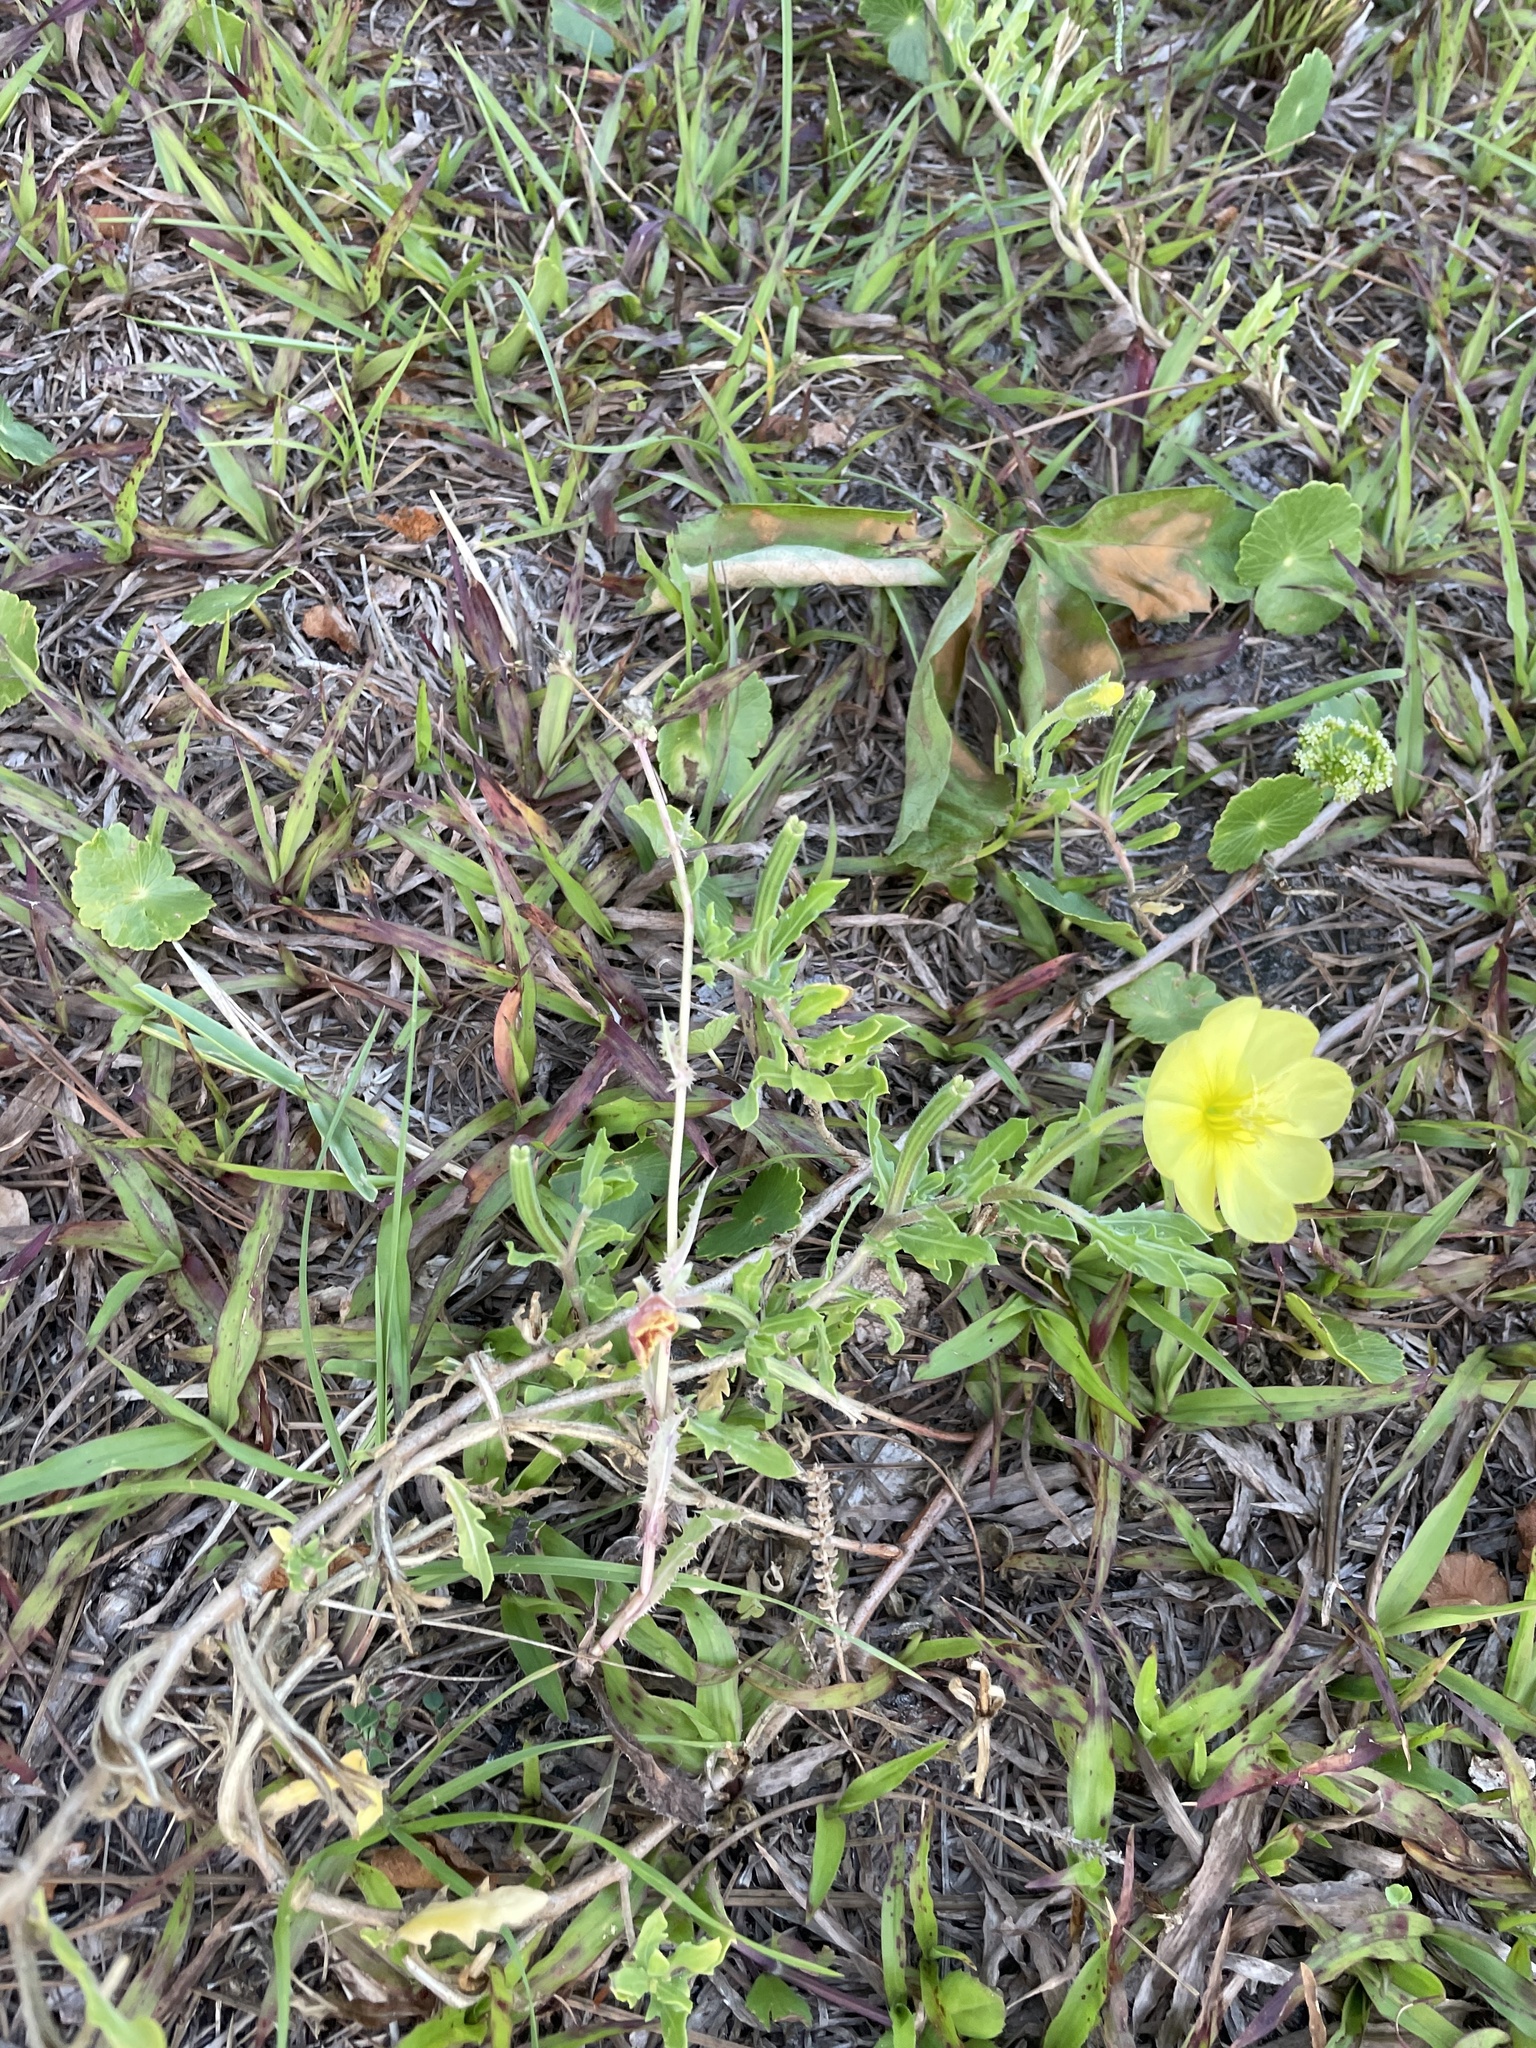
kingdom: Plantae
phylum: Tracheophyta
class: Magnoliopsida
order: Myrtales
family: Onagraceae
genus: Oenothera
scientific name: Oenothera laciniata
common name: Cut-leaved evening-primrose
